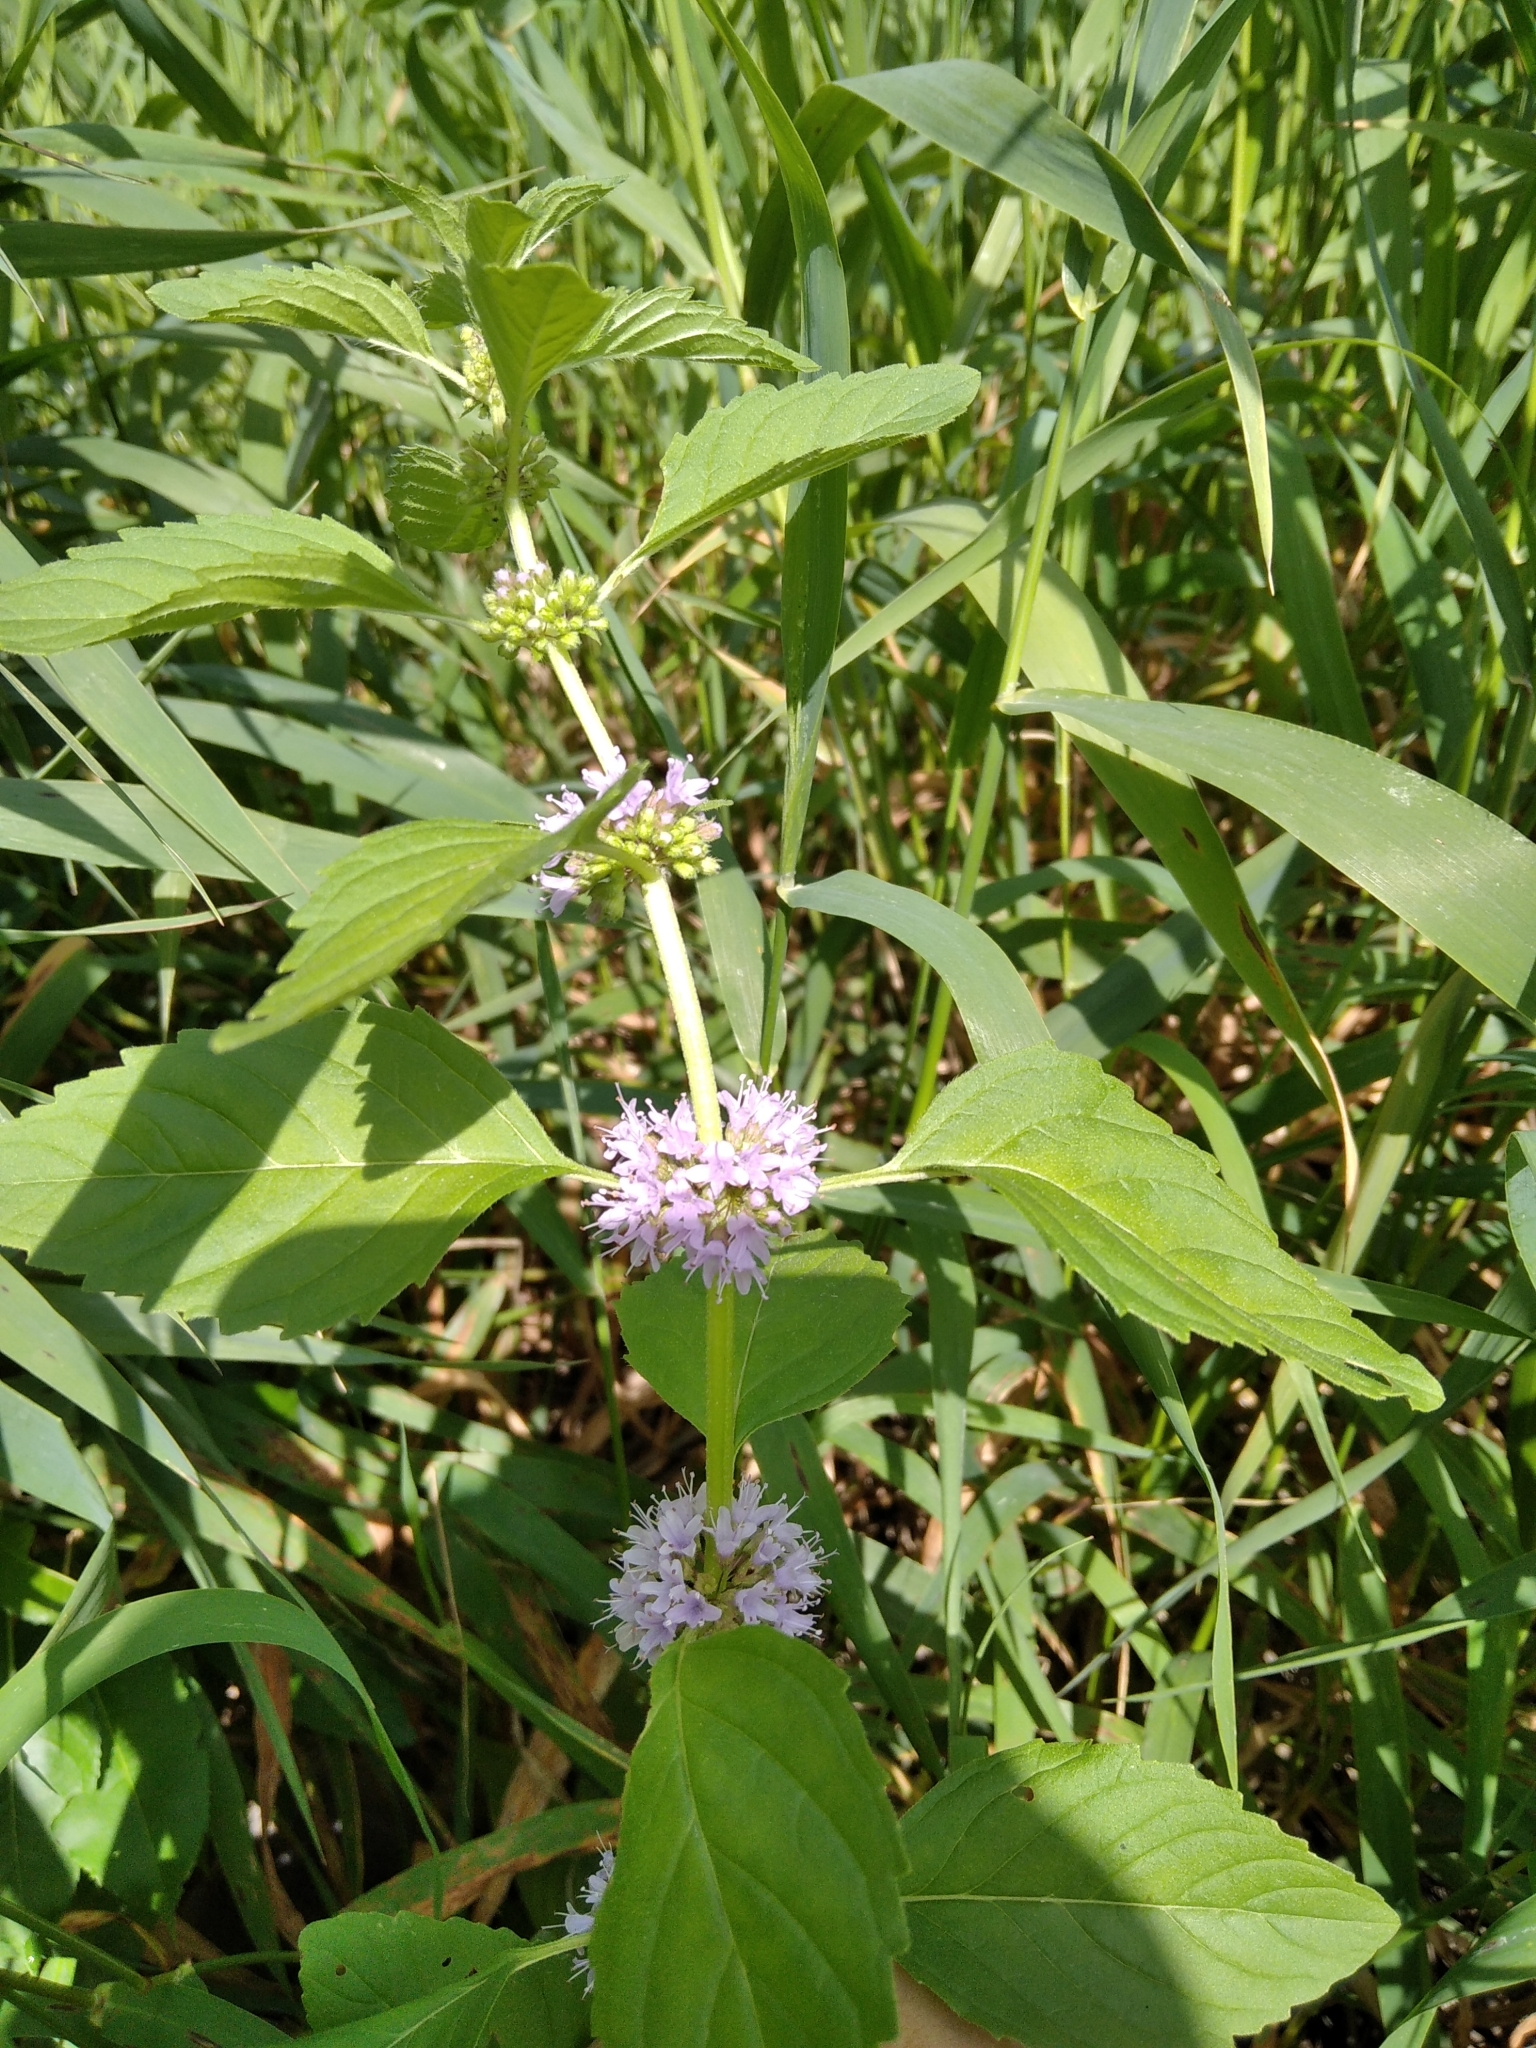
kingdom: Plantae
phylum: Tracheophyta
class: Magnoliopsida
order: Lamiales
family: Lamiaceae
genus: Mentha
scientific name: Mentha arvensis
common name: Corn mint
